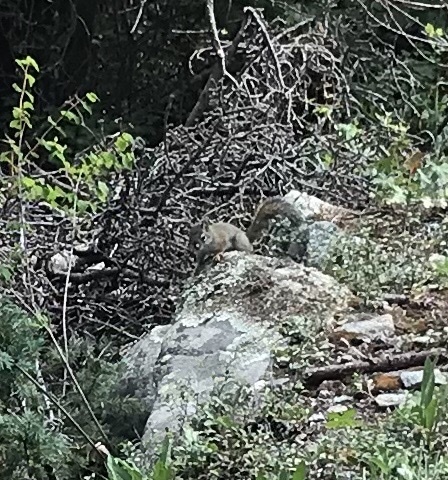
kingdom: Animalia
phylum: Chordata
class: Mammalia
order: Rodentia
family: Sciuridae
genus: Tamiasciurus
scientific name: Tamiasciurus hudsonicus
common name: Red squirrel
